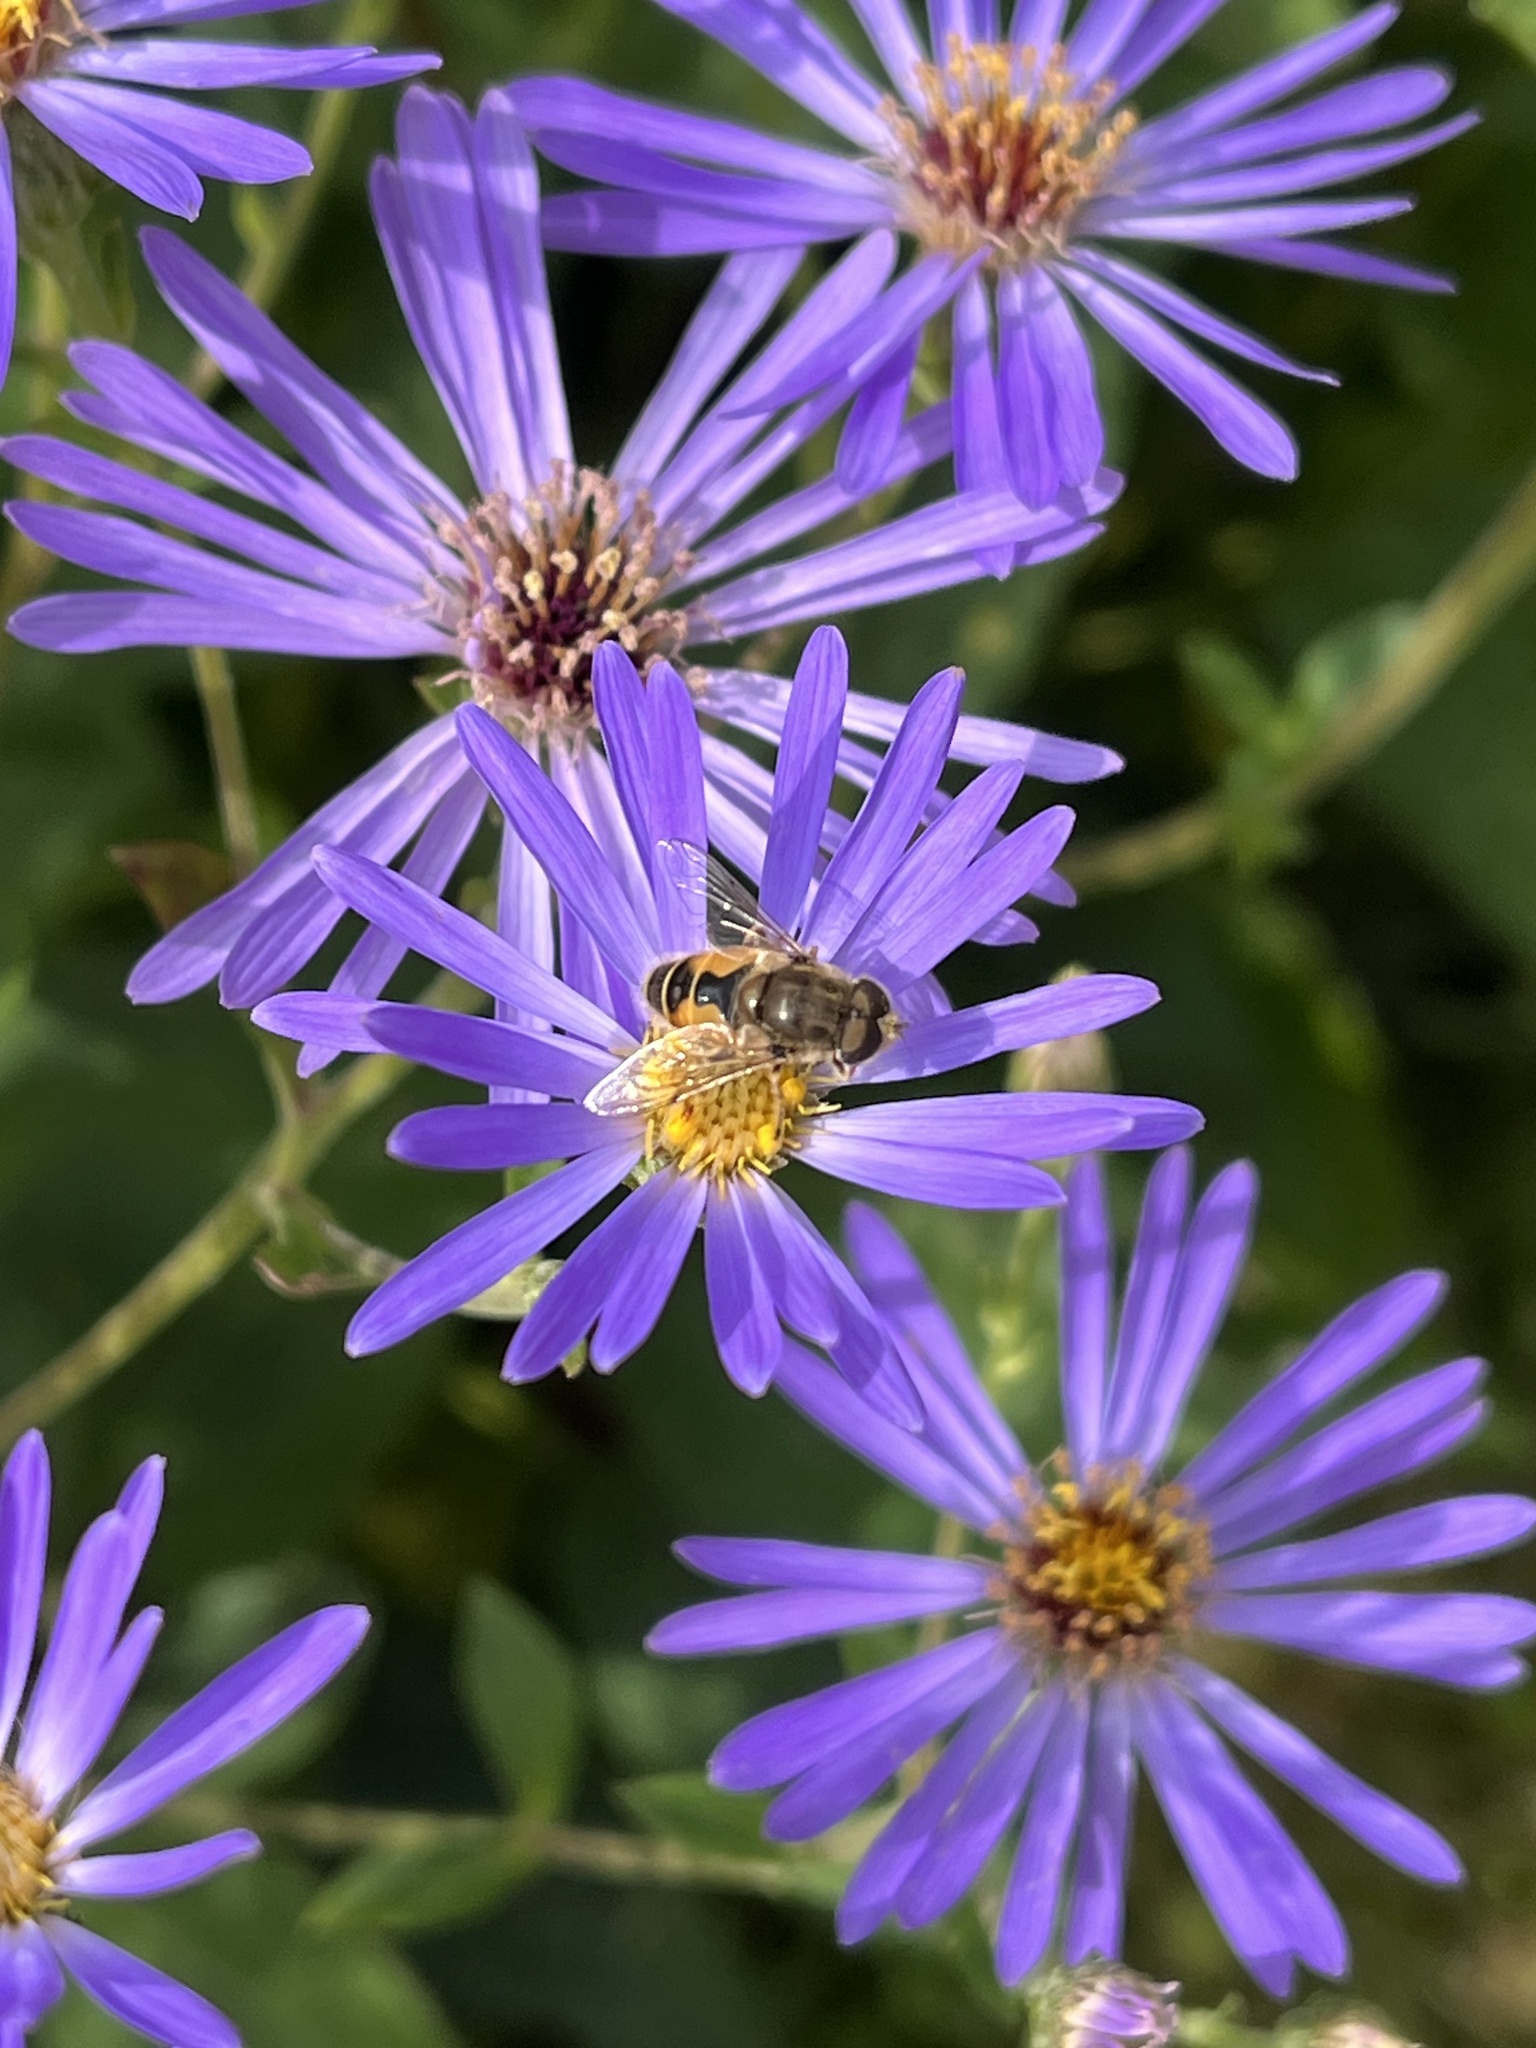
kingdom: Animalia
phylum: Arthropoda
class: Insecta
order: Diptera
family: Syrphidae
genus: Eristalis
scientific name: Eristalis arbustorum
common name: Hover fly
